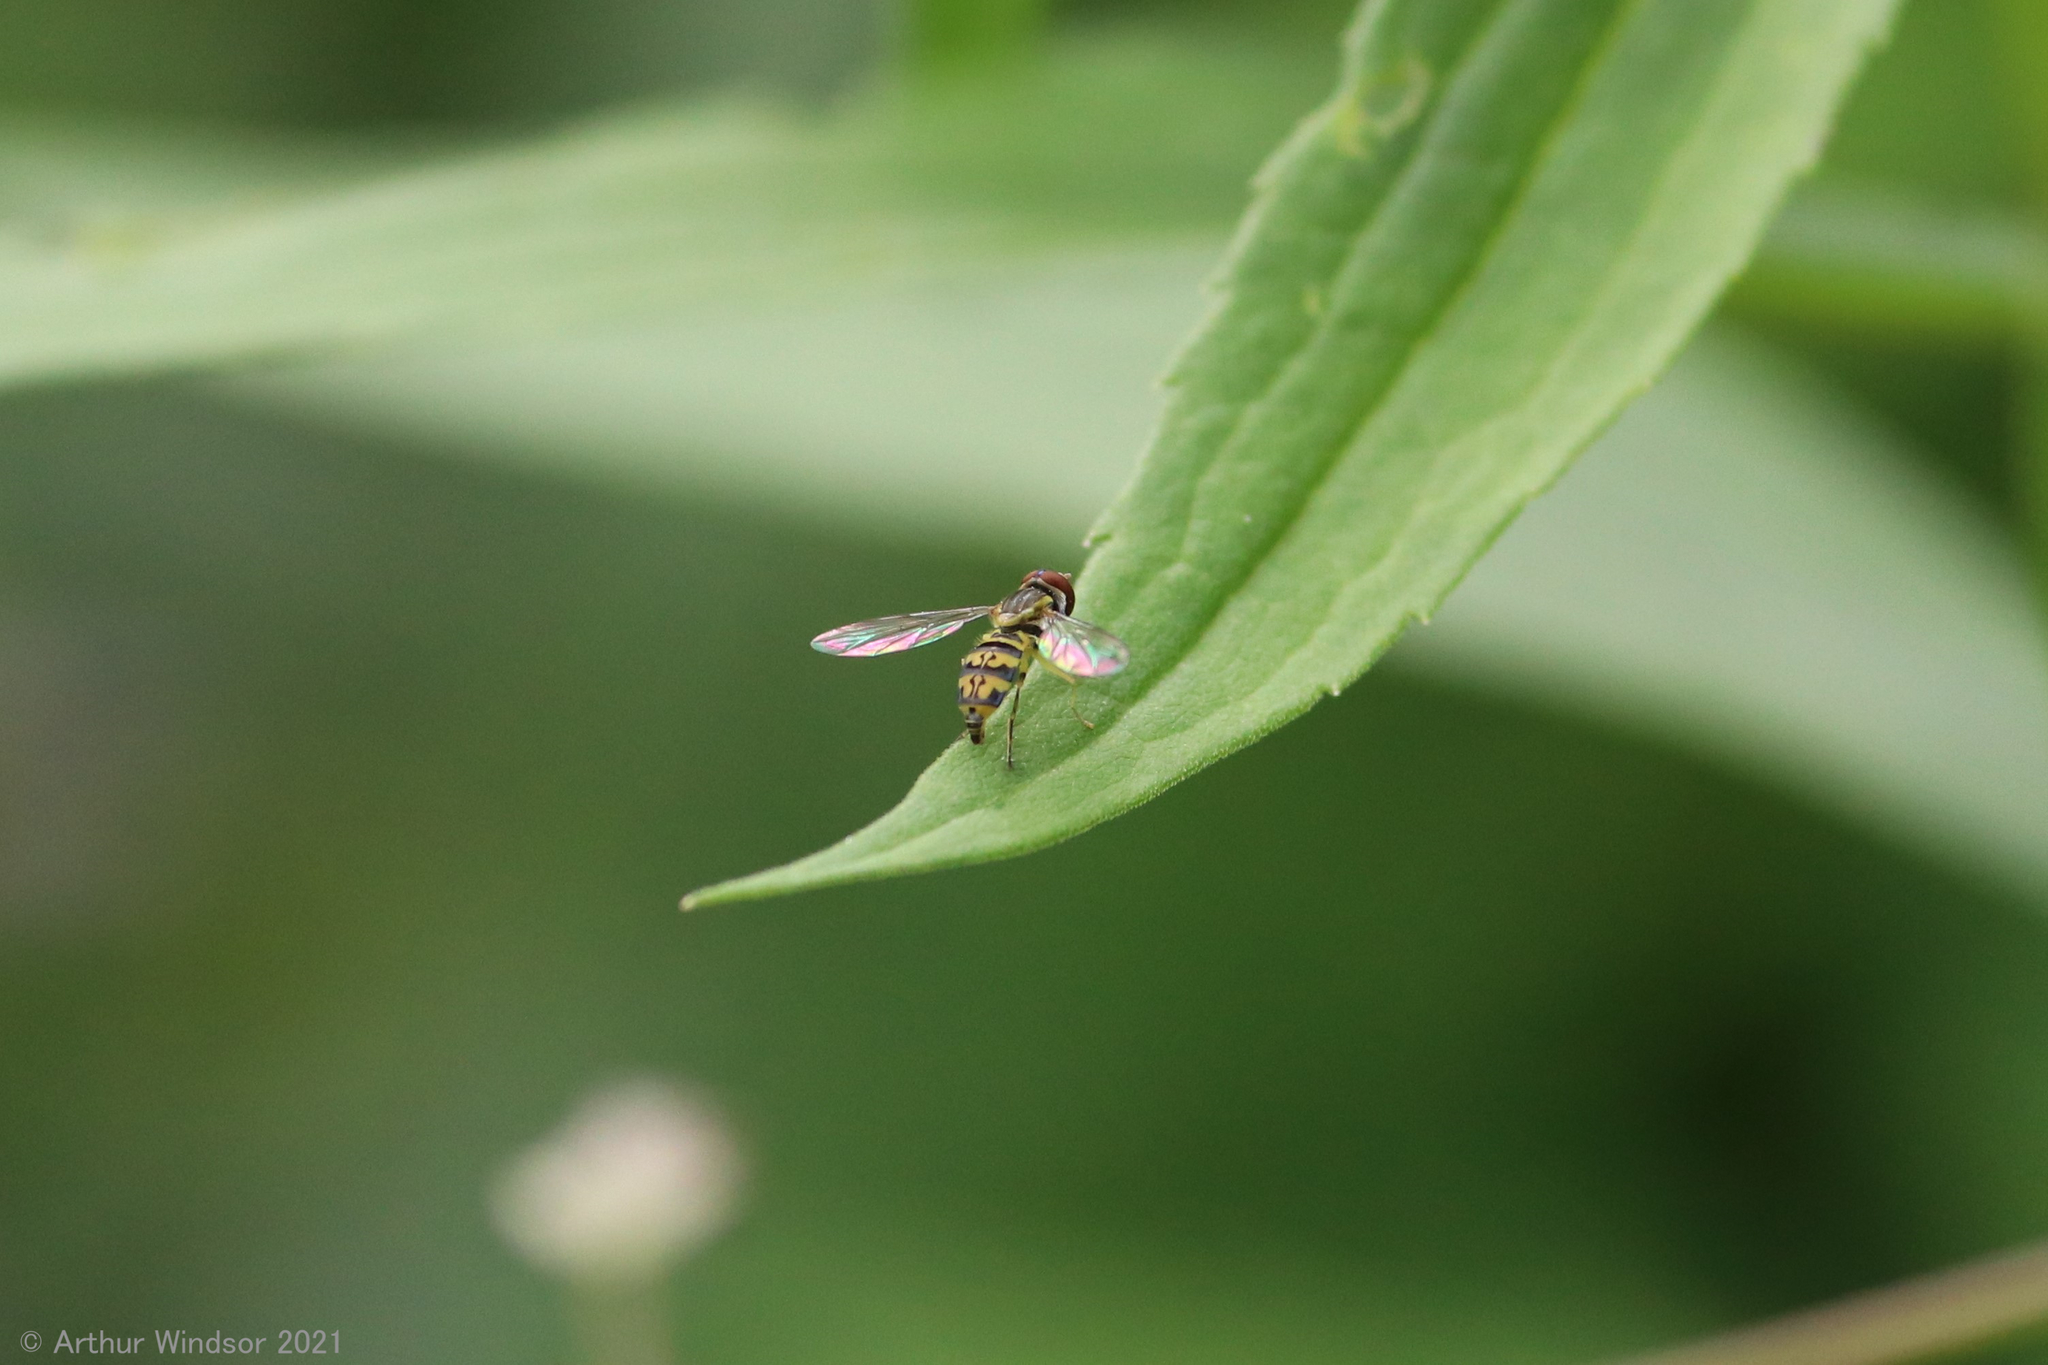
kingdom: Animalia
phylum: Arthropoda
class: Insecta
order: Diptera
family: Syrphidae
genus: Toxomerus
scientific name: Toxomerus geminatus
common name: Eastern calligrapher
